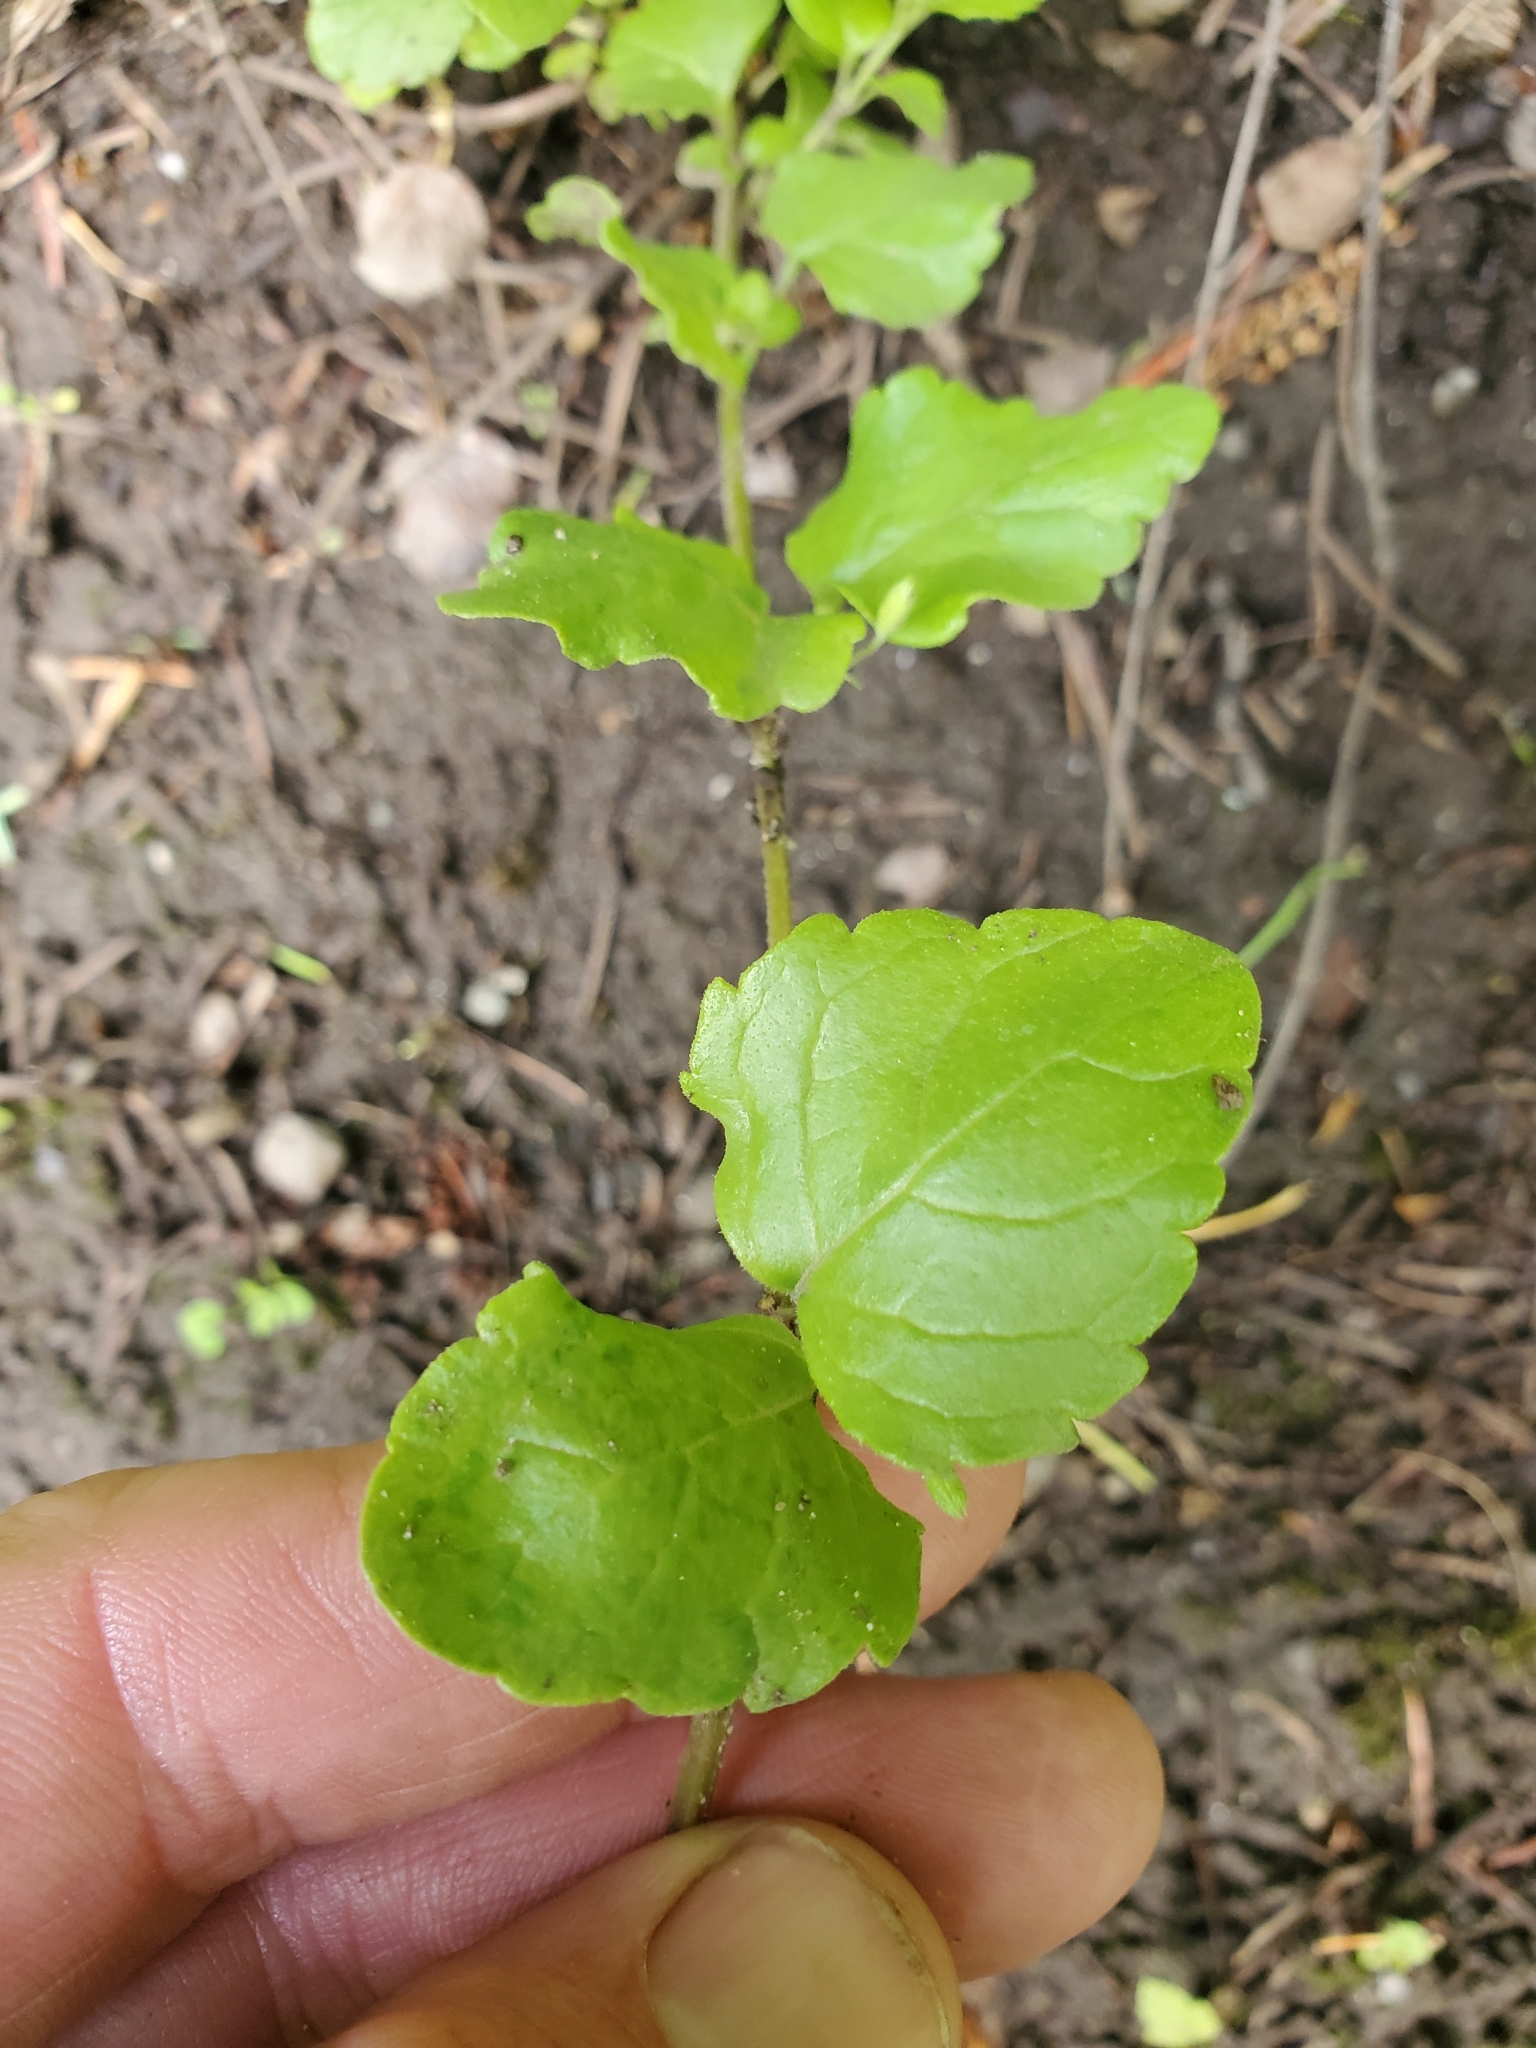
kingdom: Plantae
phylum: Tracheophyta
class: Magnoliopsida
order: Lamiales
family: Lamiaceae
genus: Micromeria
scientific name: Micromeria douglasii
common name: Yerba buena
